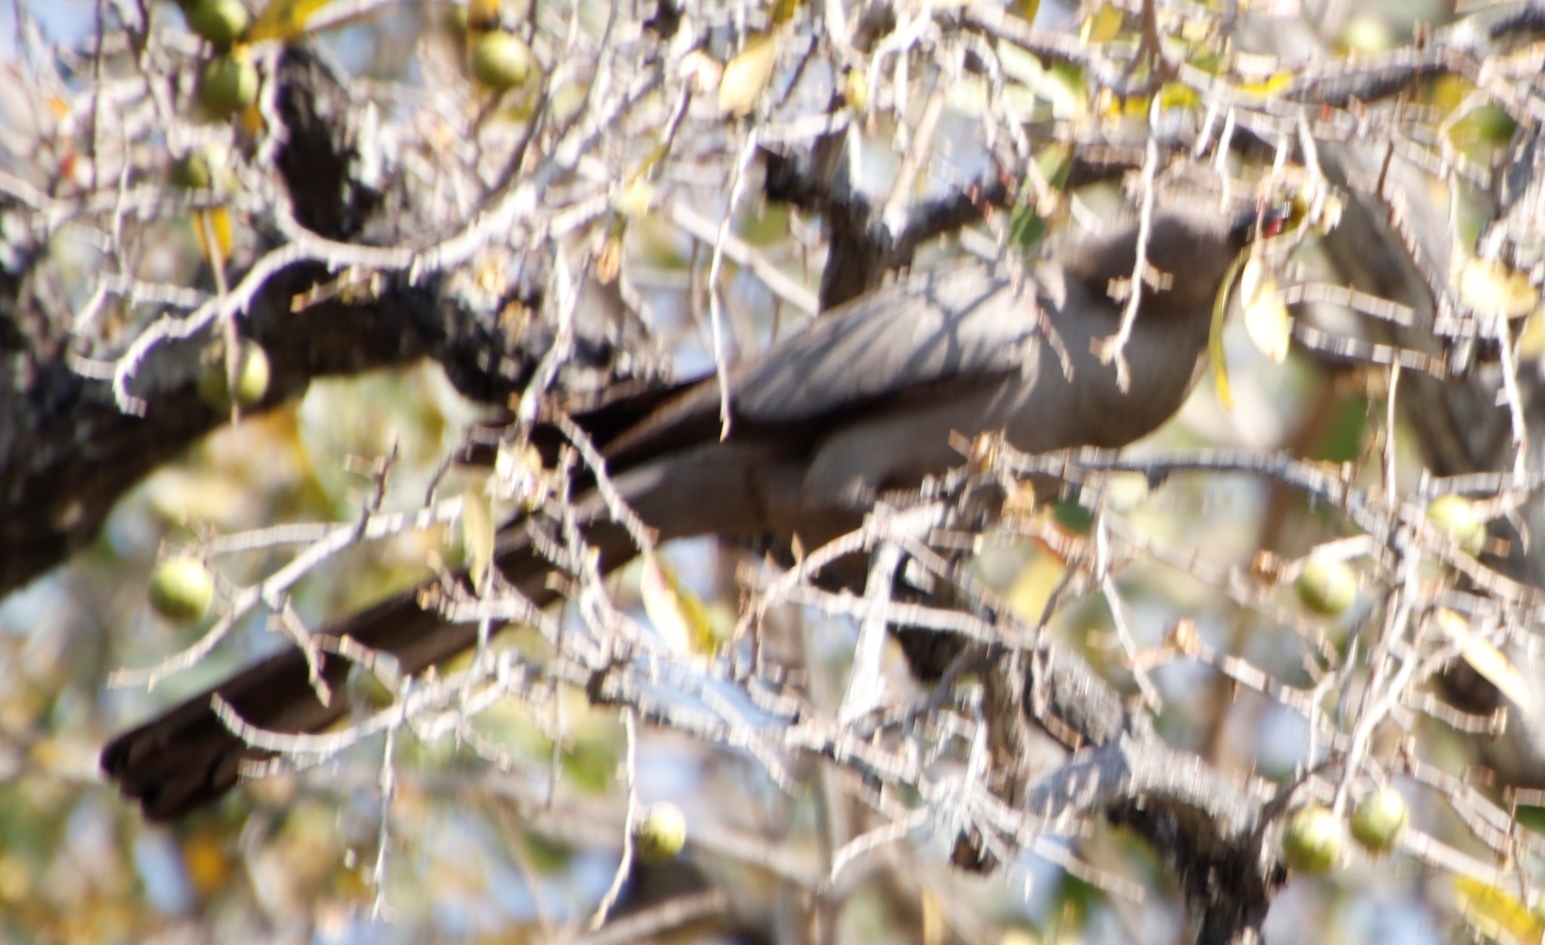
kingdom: Animalia
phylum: Chordata
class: Aves
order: Musophagiformes
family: Musophagidae
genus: Corythaixoides
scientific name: Corythaixoides concolor
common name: Grey go-away-bird
